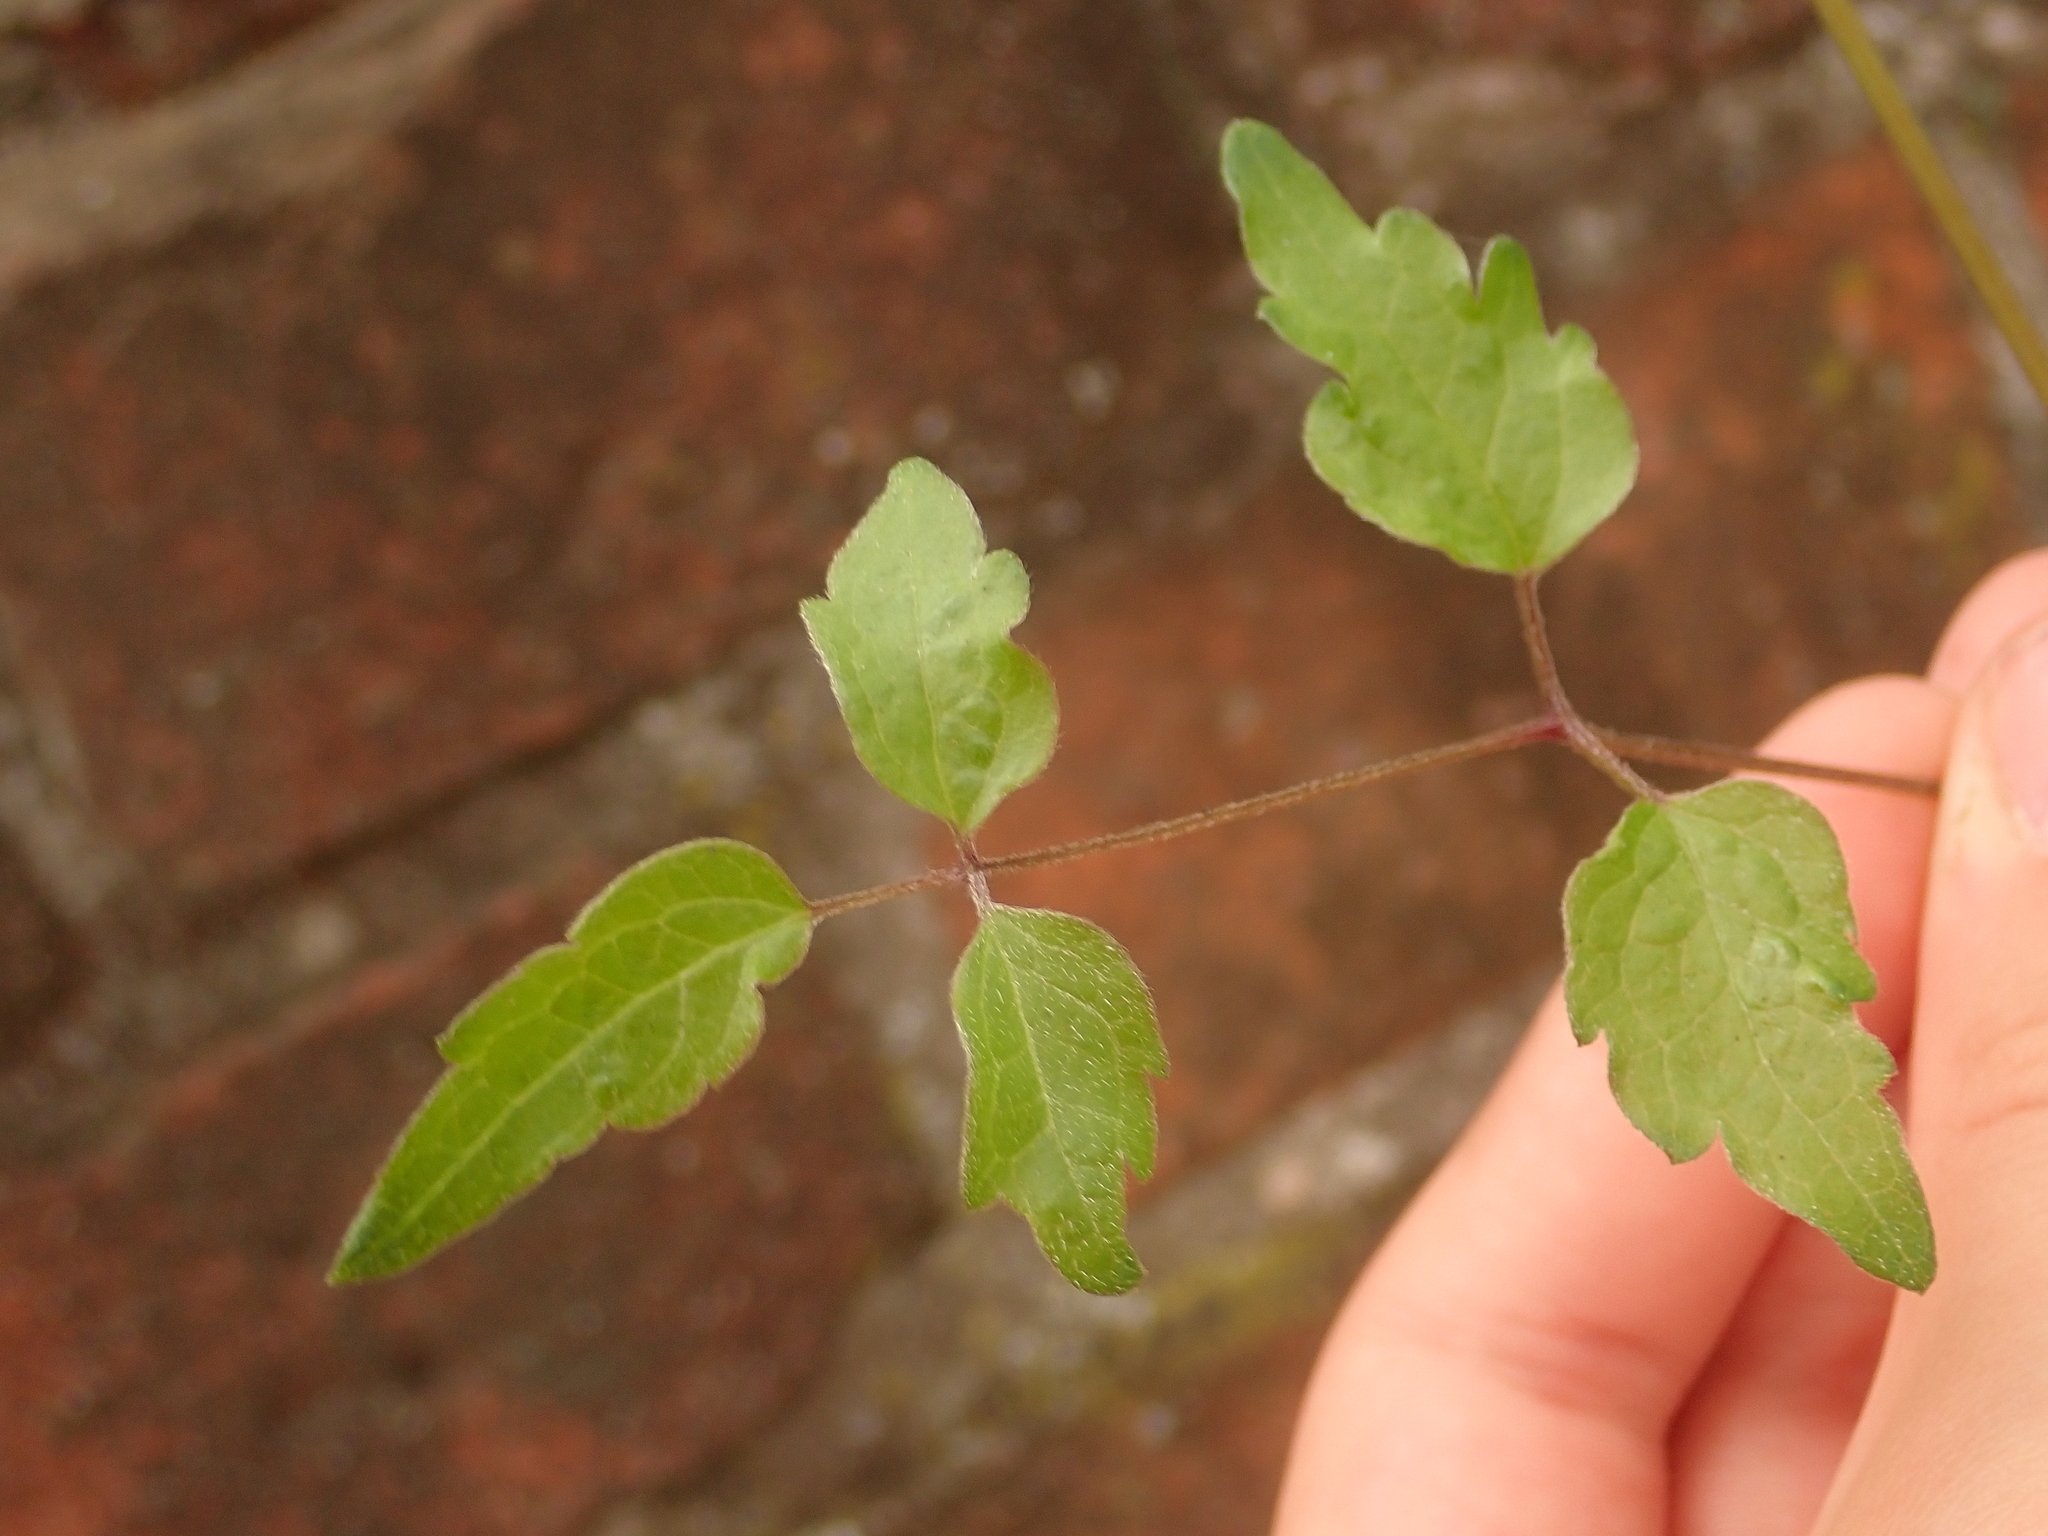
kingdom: Plantae
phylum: Tracheophyta
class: Magnoliopsida
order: Ranunculales
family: Ranunculaceae
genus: Clematis
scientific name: Clematis vitalba
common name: Evergreen clematis
